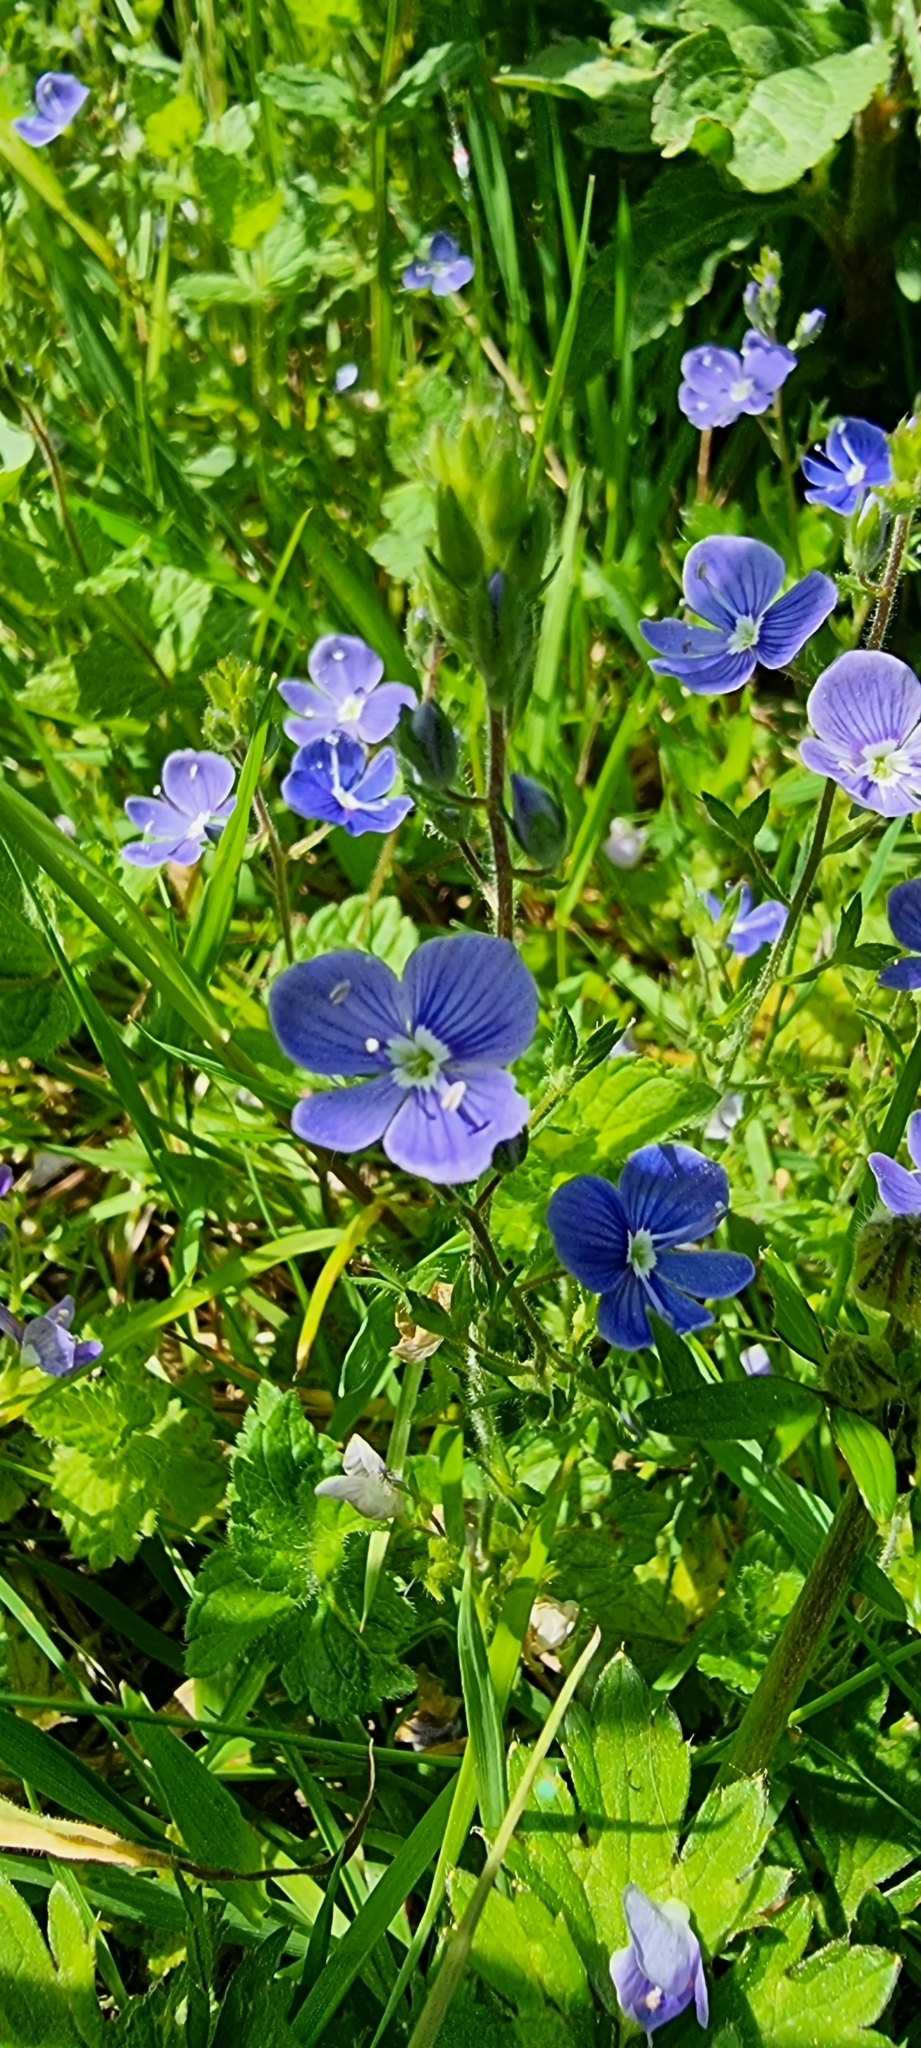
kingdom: Plantae
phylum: Tracheophyta
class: Magnoliopsida
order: Lamiales
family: Plantaginaceae
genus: Veronica
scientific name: Veronica chamaedrys
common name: Germander speedwell
